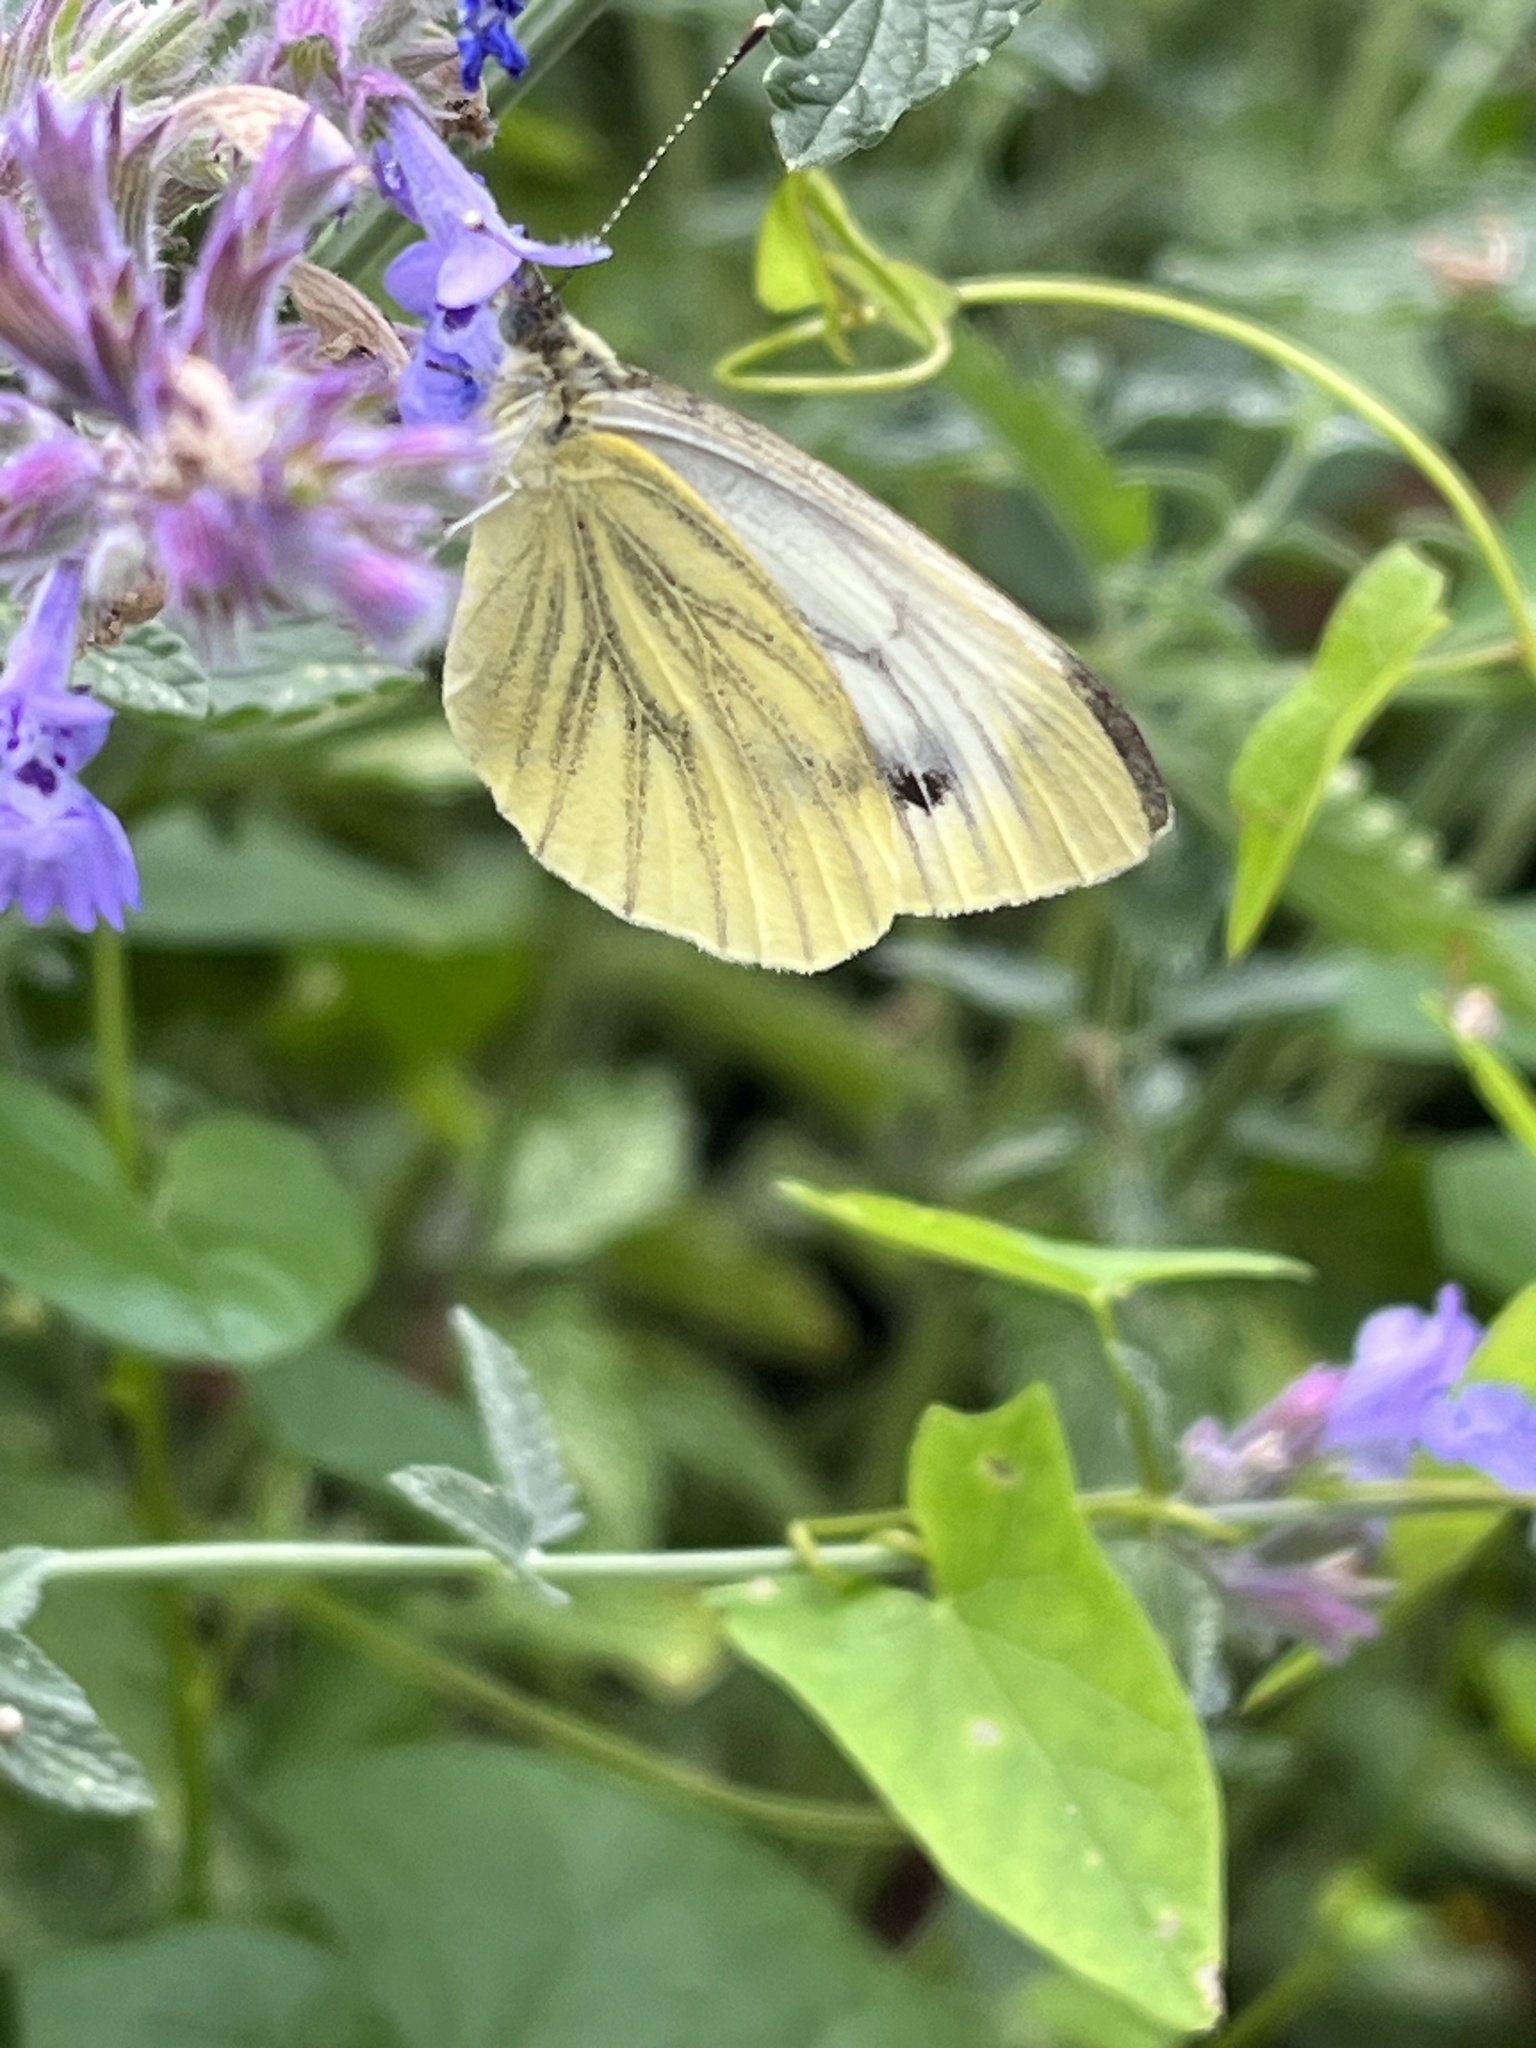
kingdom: Animalia
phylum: Arthropoda
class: Insecta
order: Lepidoptera
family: Pieridae
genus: Pieris
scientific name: Pieris napi
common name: Green-veined white
